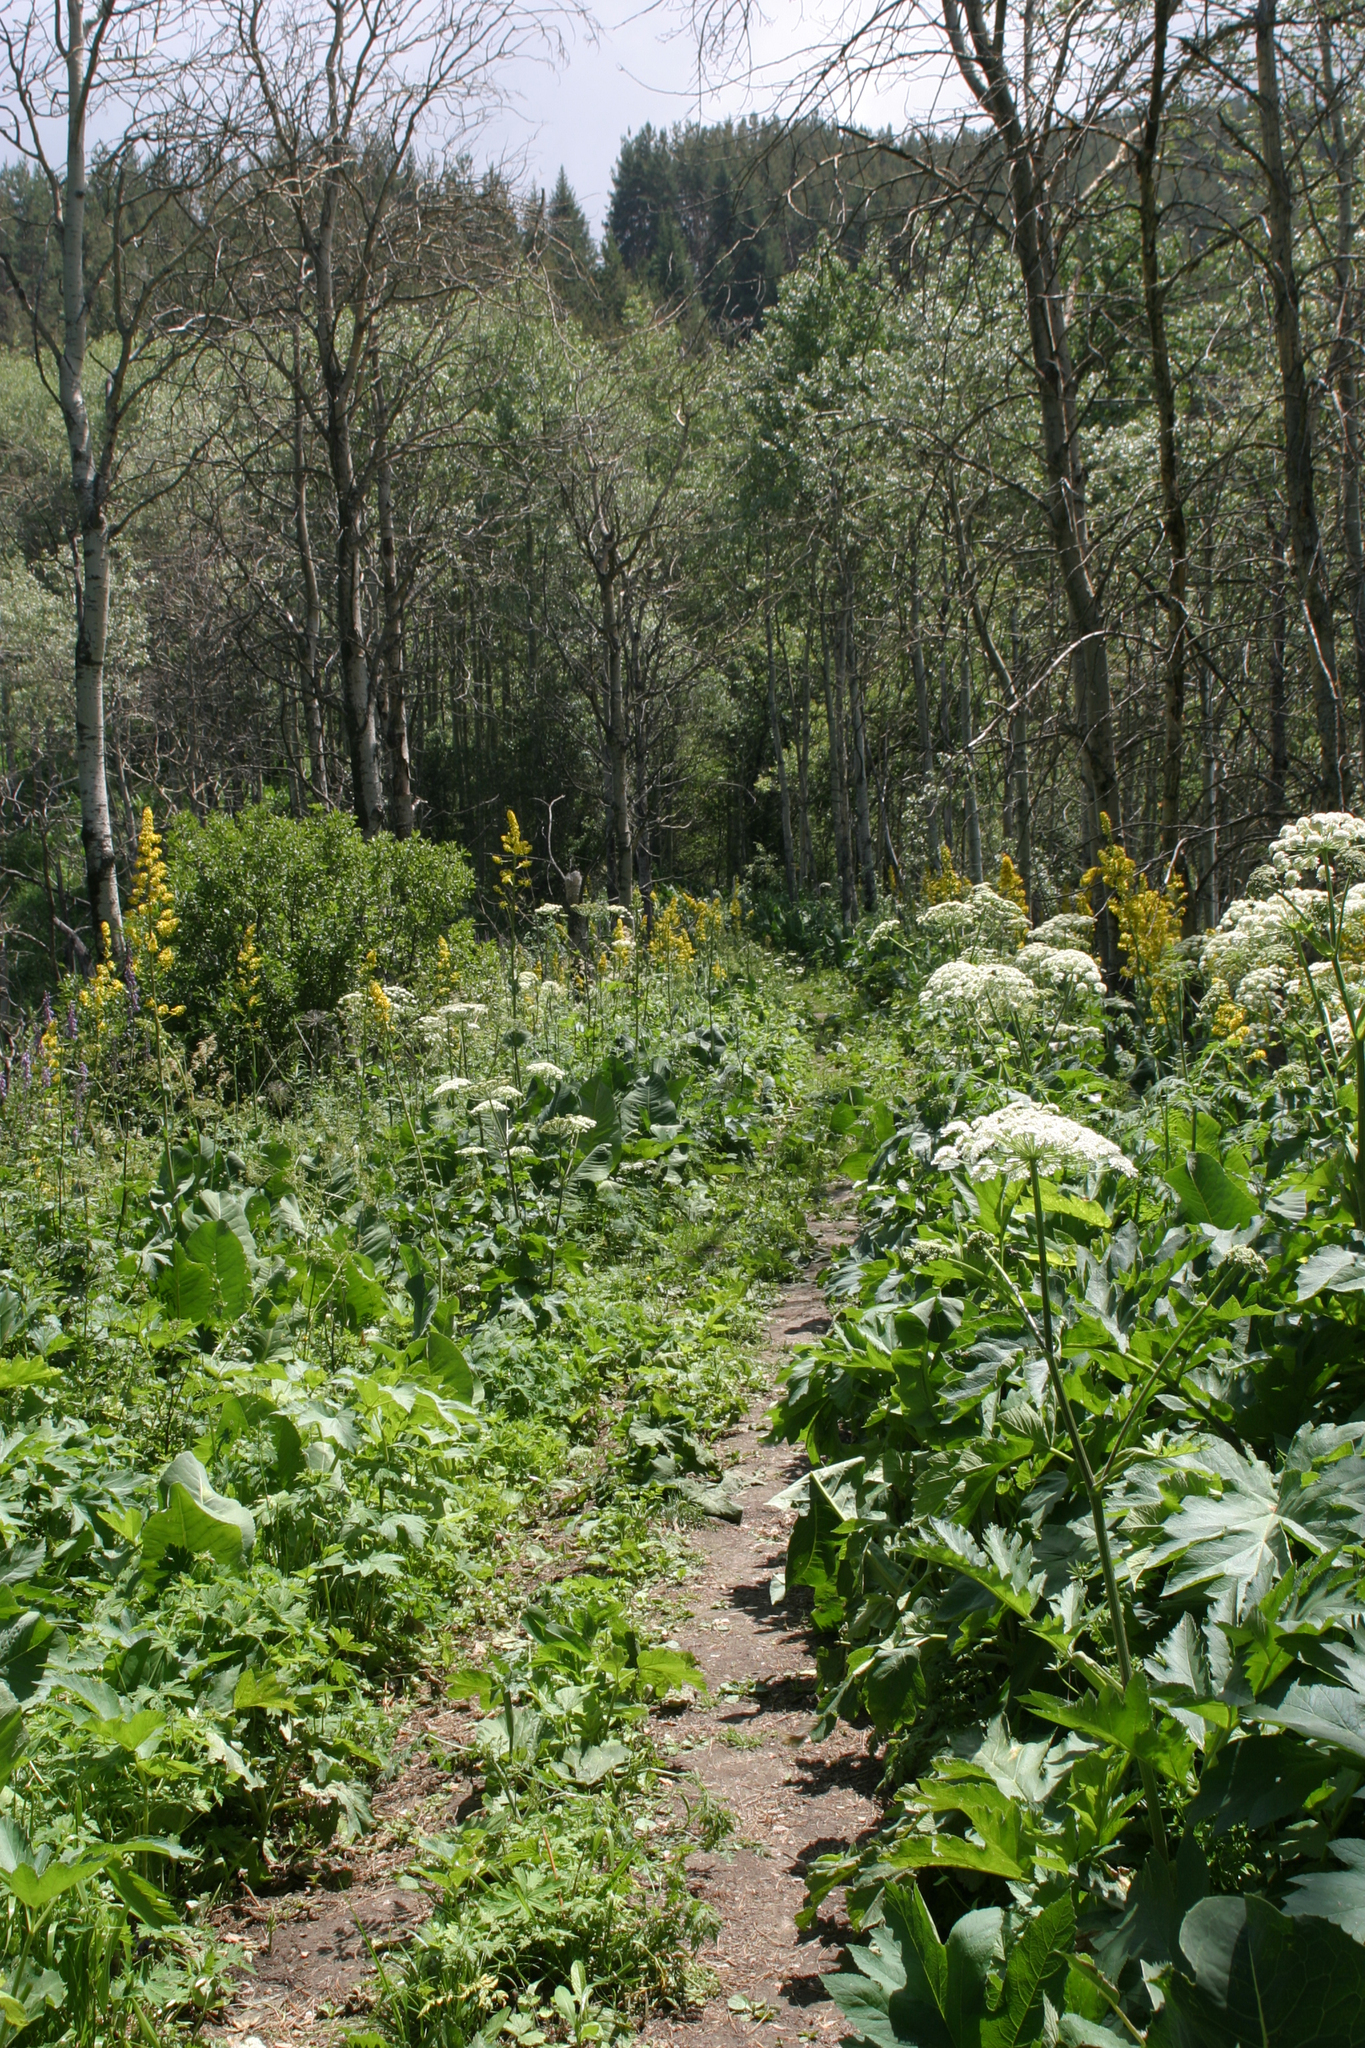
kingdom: Plantae
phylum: Tracheophyta
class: Magnoliopsida
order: Apiales
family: Apiaceae
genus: Heracleum
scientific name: Heracleum dissectum
